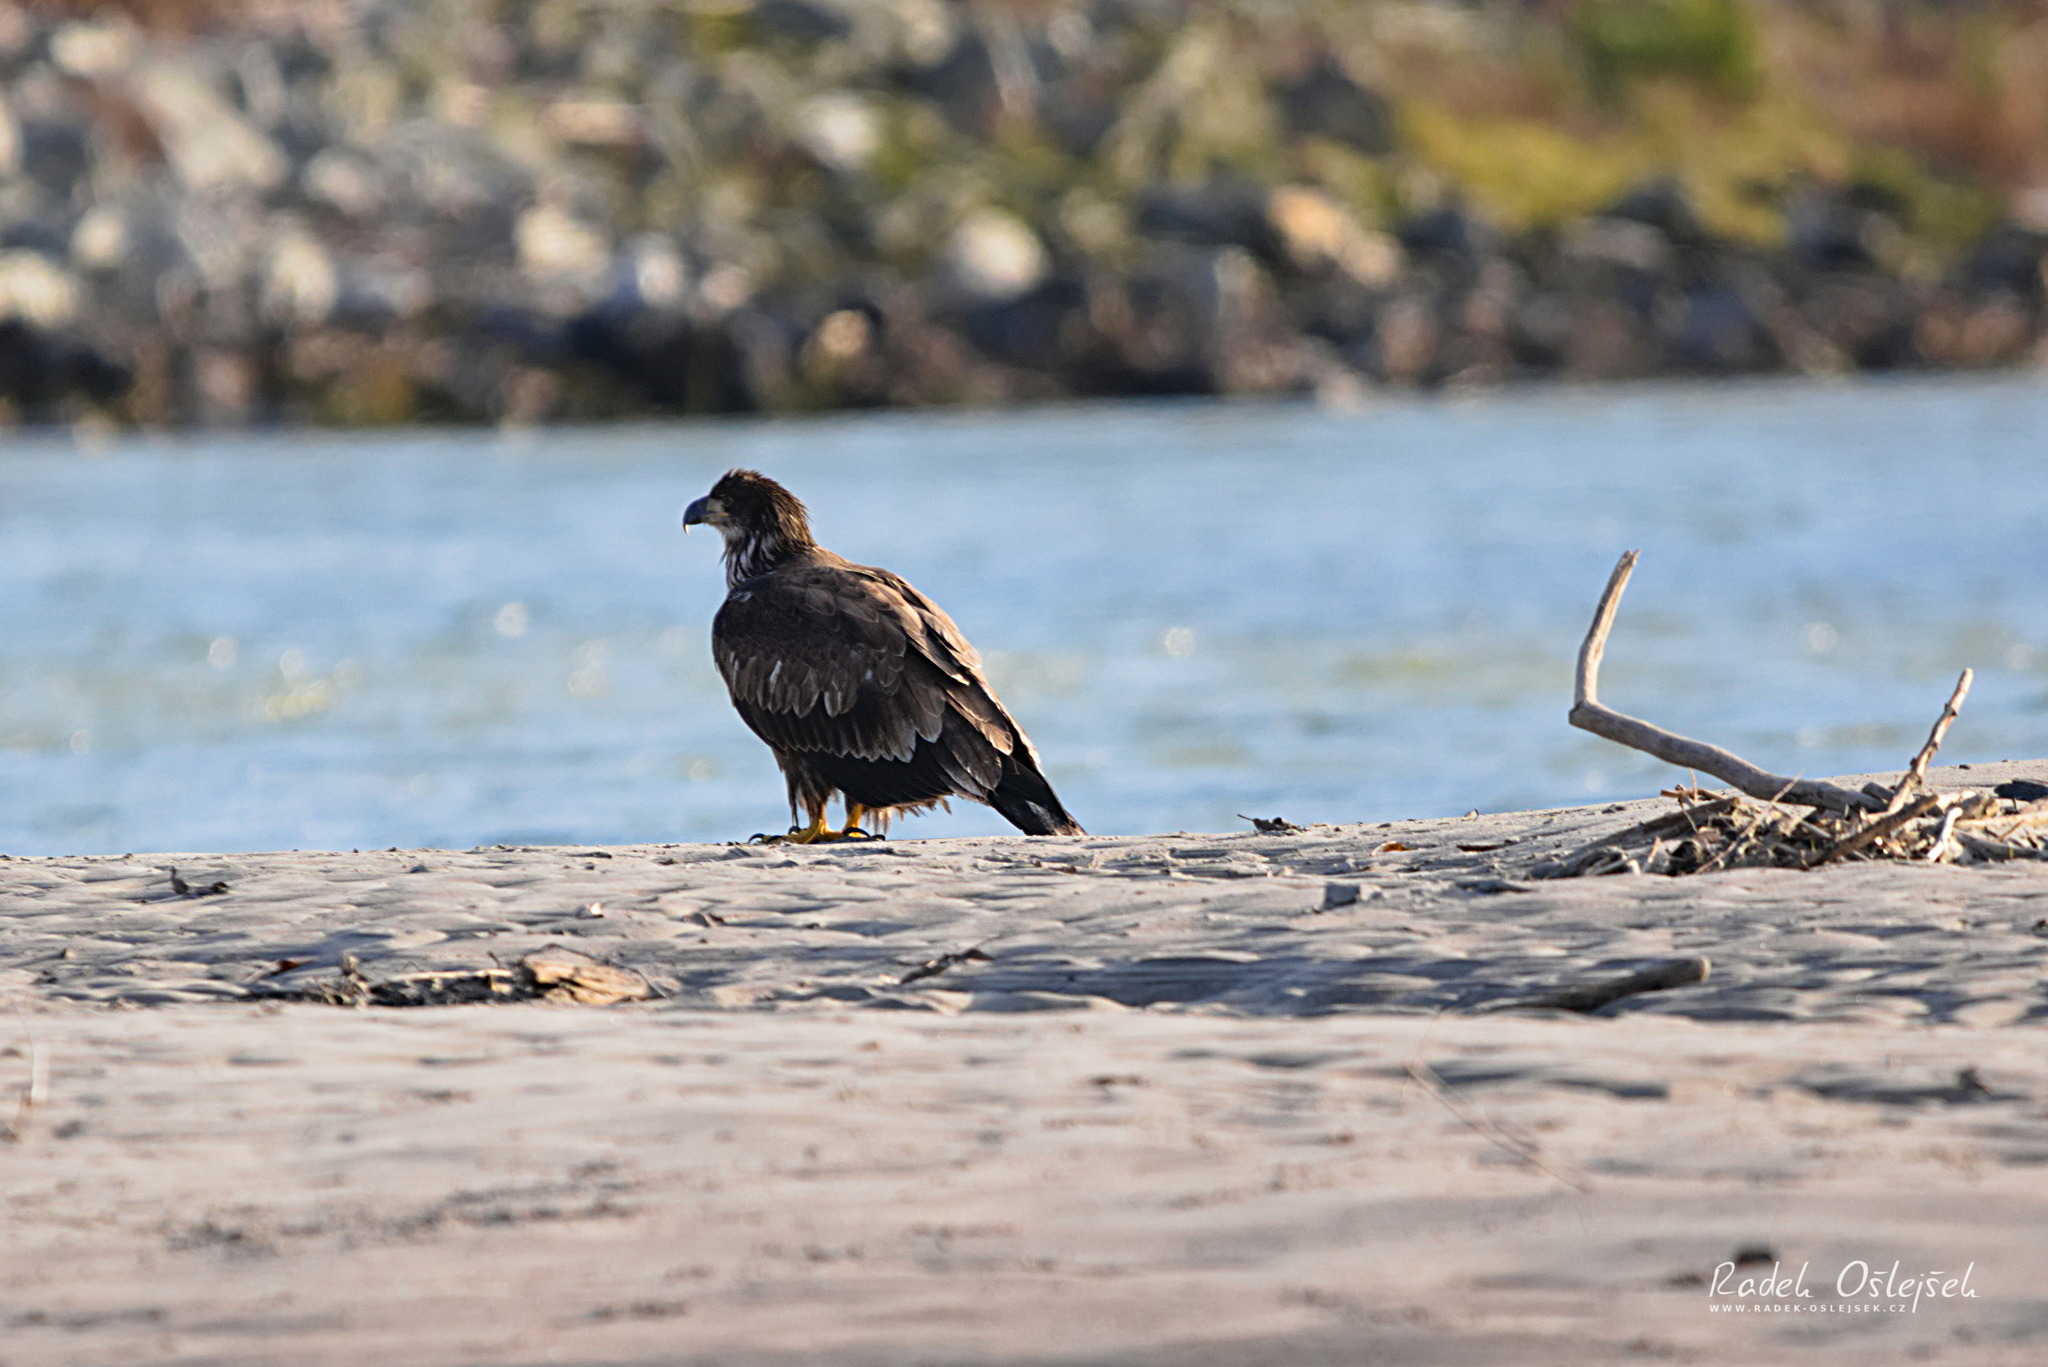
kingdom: Animalia
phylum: Chordata
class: Aves
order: Accipitriformes
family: Accipitridae
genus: Haliaeetus
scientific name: Haliaeetus leucocephalus
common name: Bald eagle
